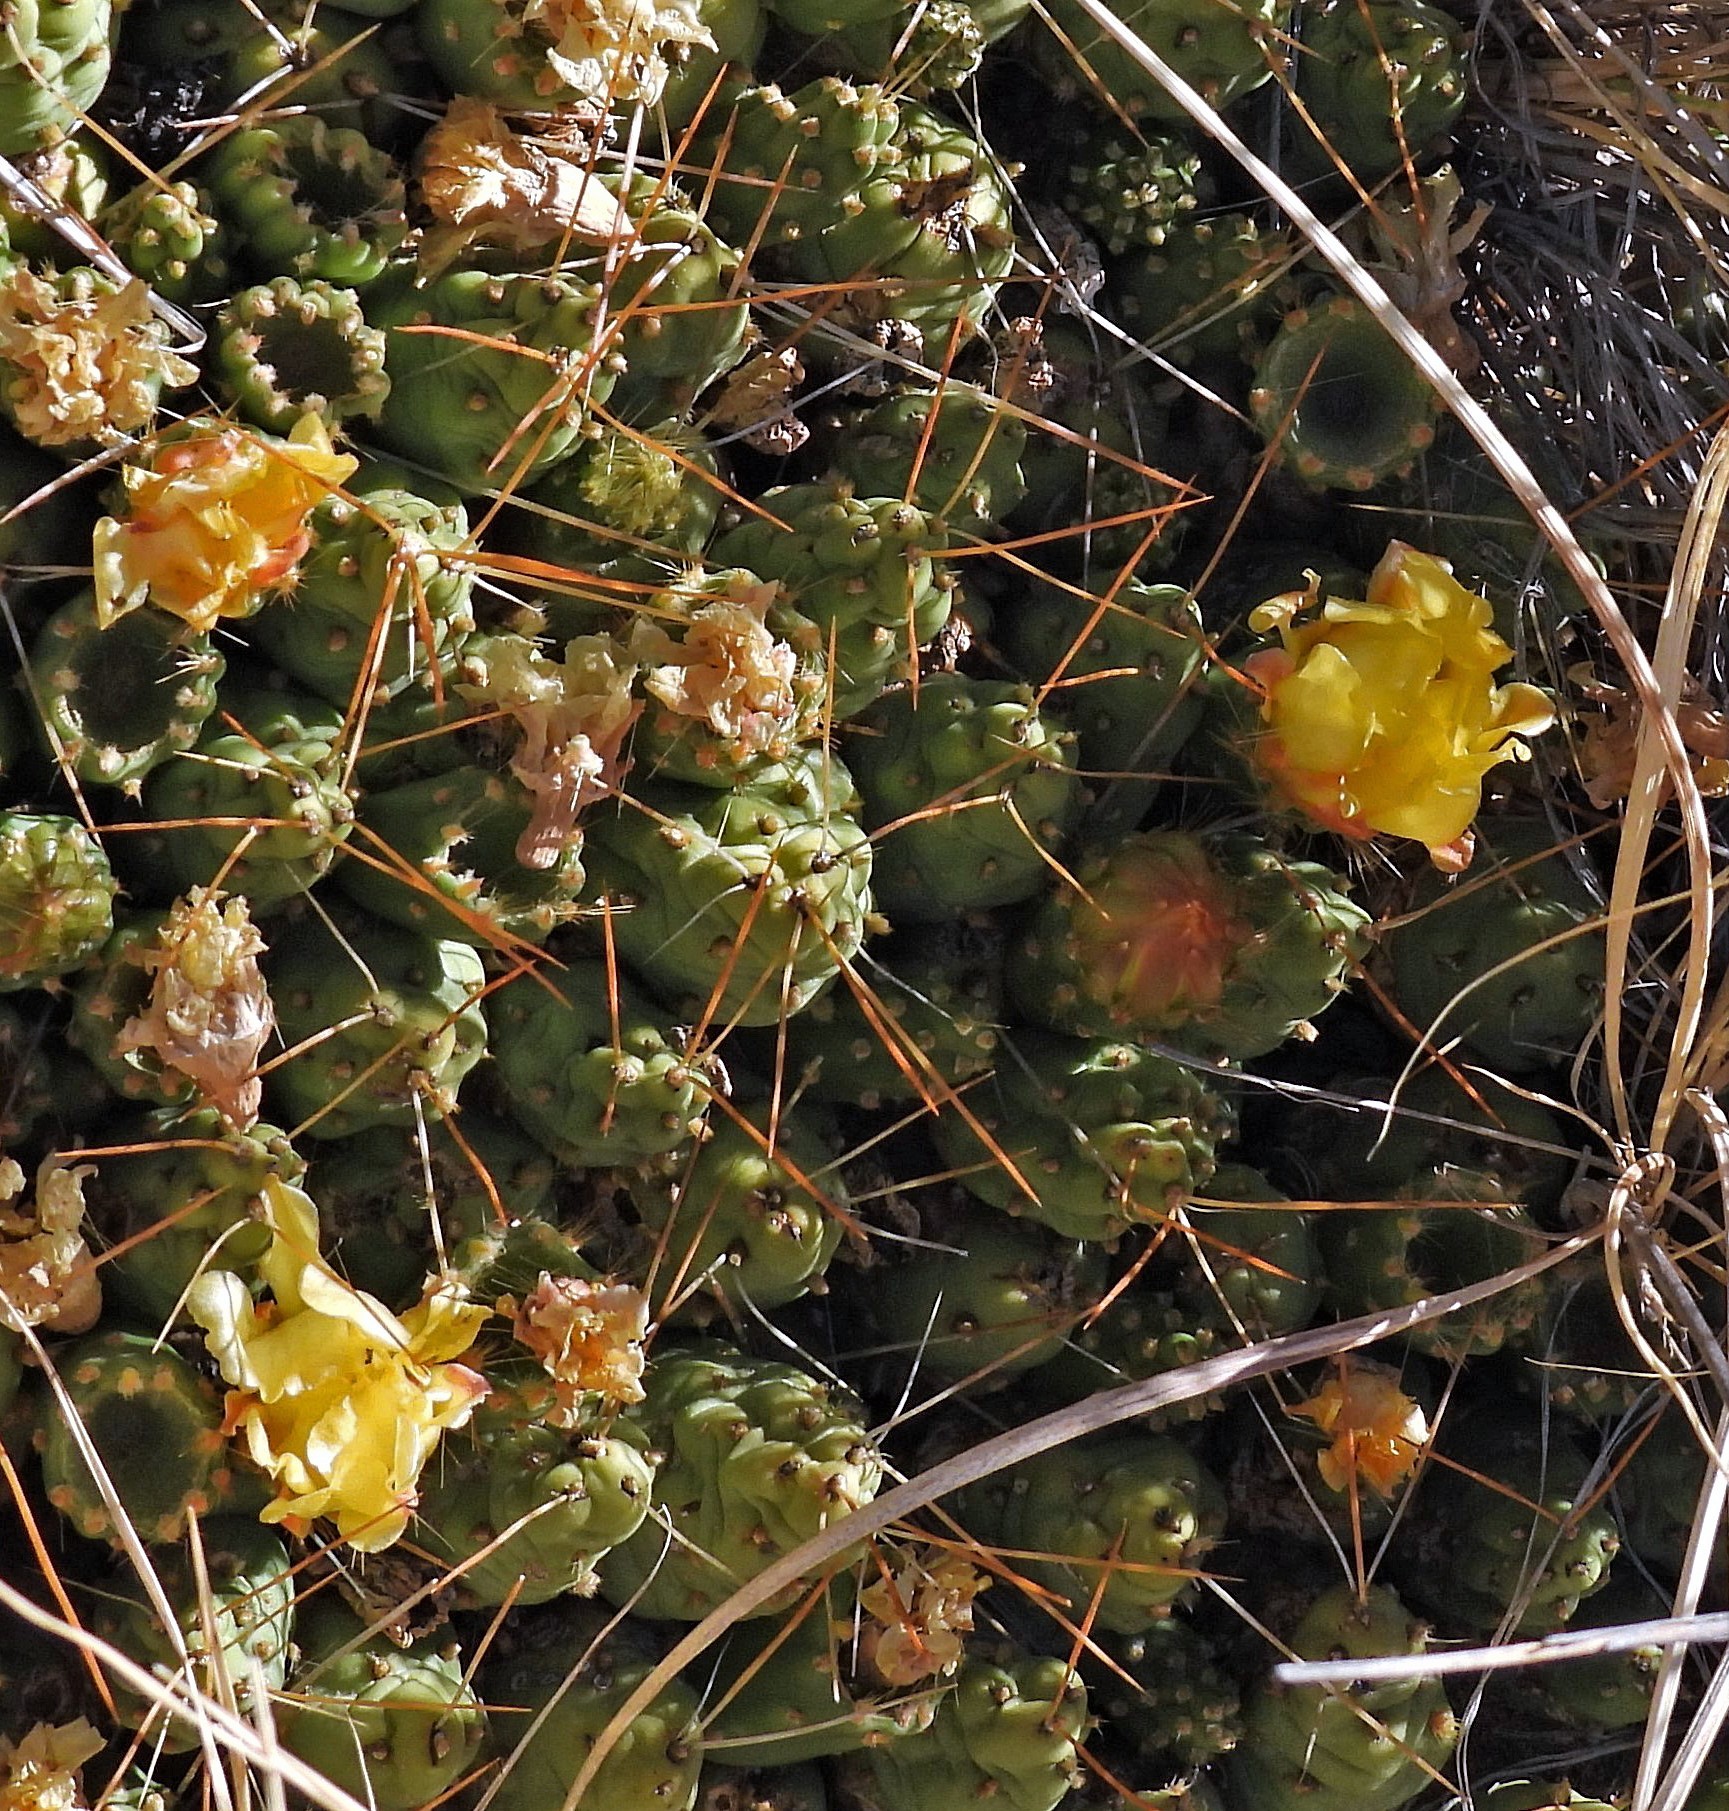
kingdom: Plantae
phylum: Tracheophyta
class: Magnoliopsida
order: Caryophyllales
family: Cactaceae
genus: Cumulopuntia
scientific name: Cumulopuntia boliviana
